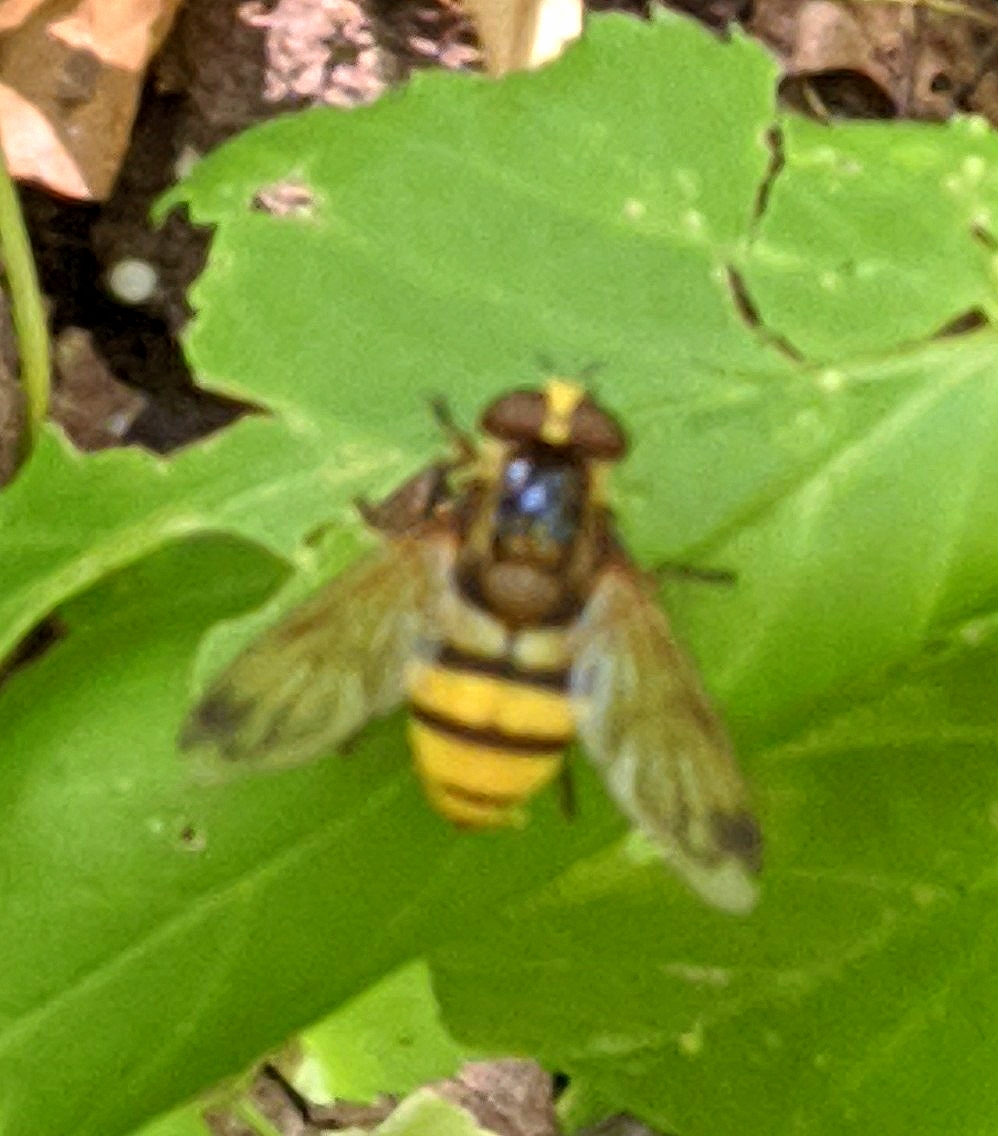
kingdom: Animalia
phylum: Arthropoda
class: Insecta
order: Diptera
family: Syrphidae
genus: Volucella
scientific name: Volucella inanis
